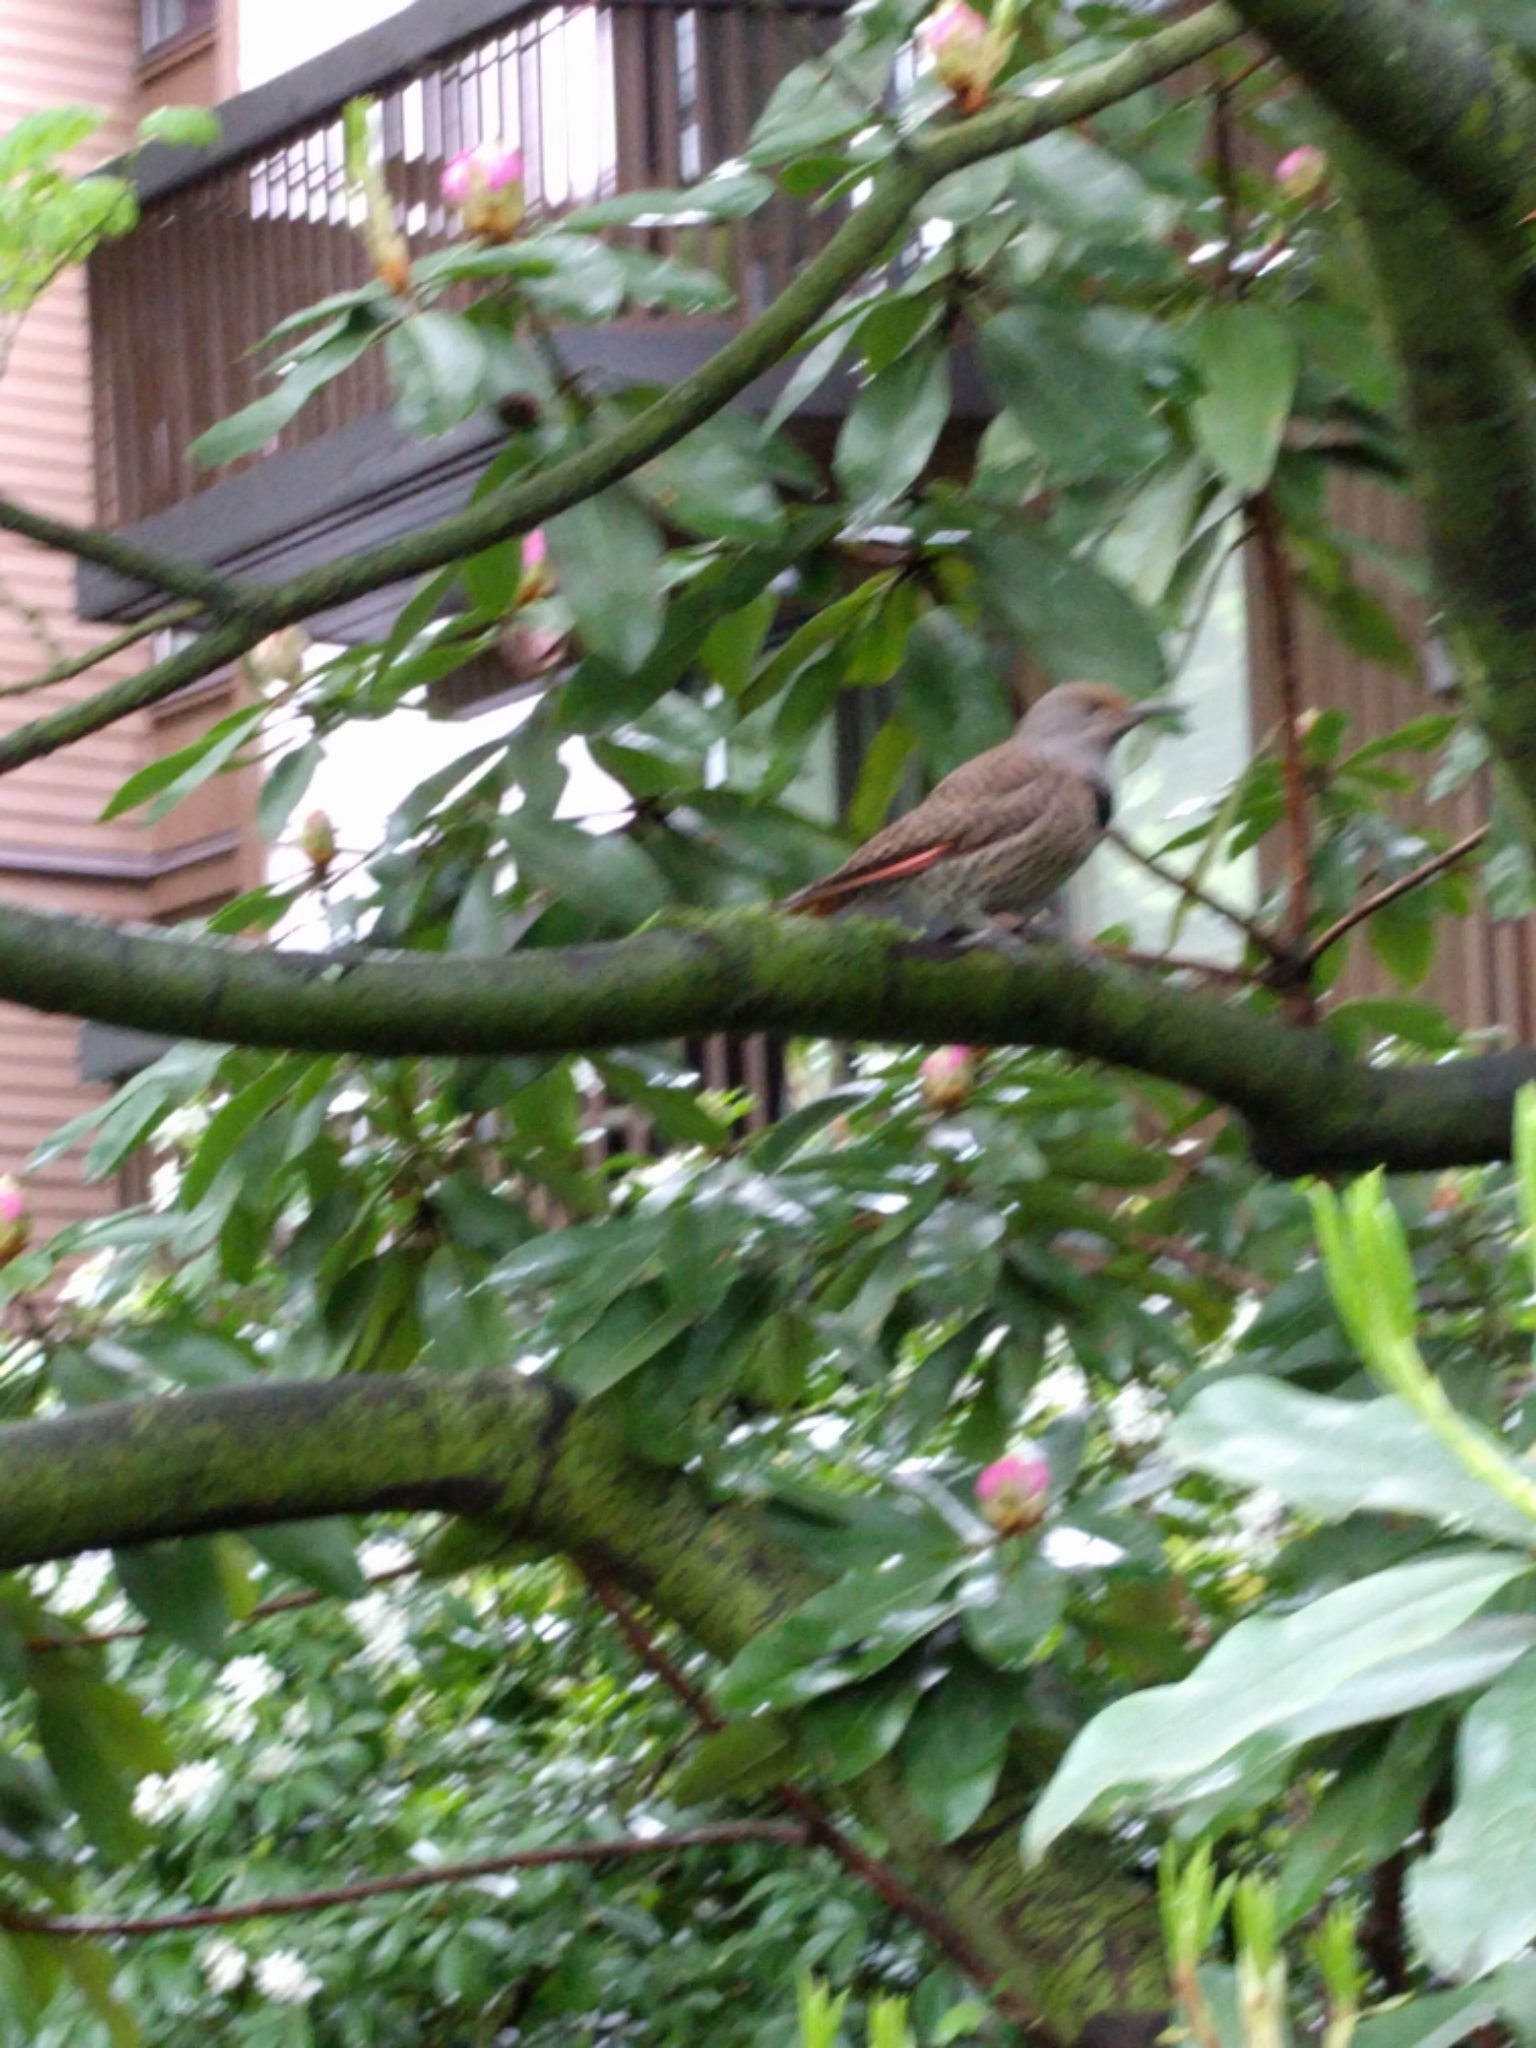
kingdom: Animalia
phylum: Chordata
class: Aves
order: Piciformes
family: Picidae
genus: Colaptes
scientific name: Colaptes auratus
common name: Northern flicker
